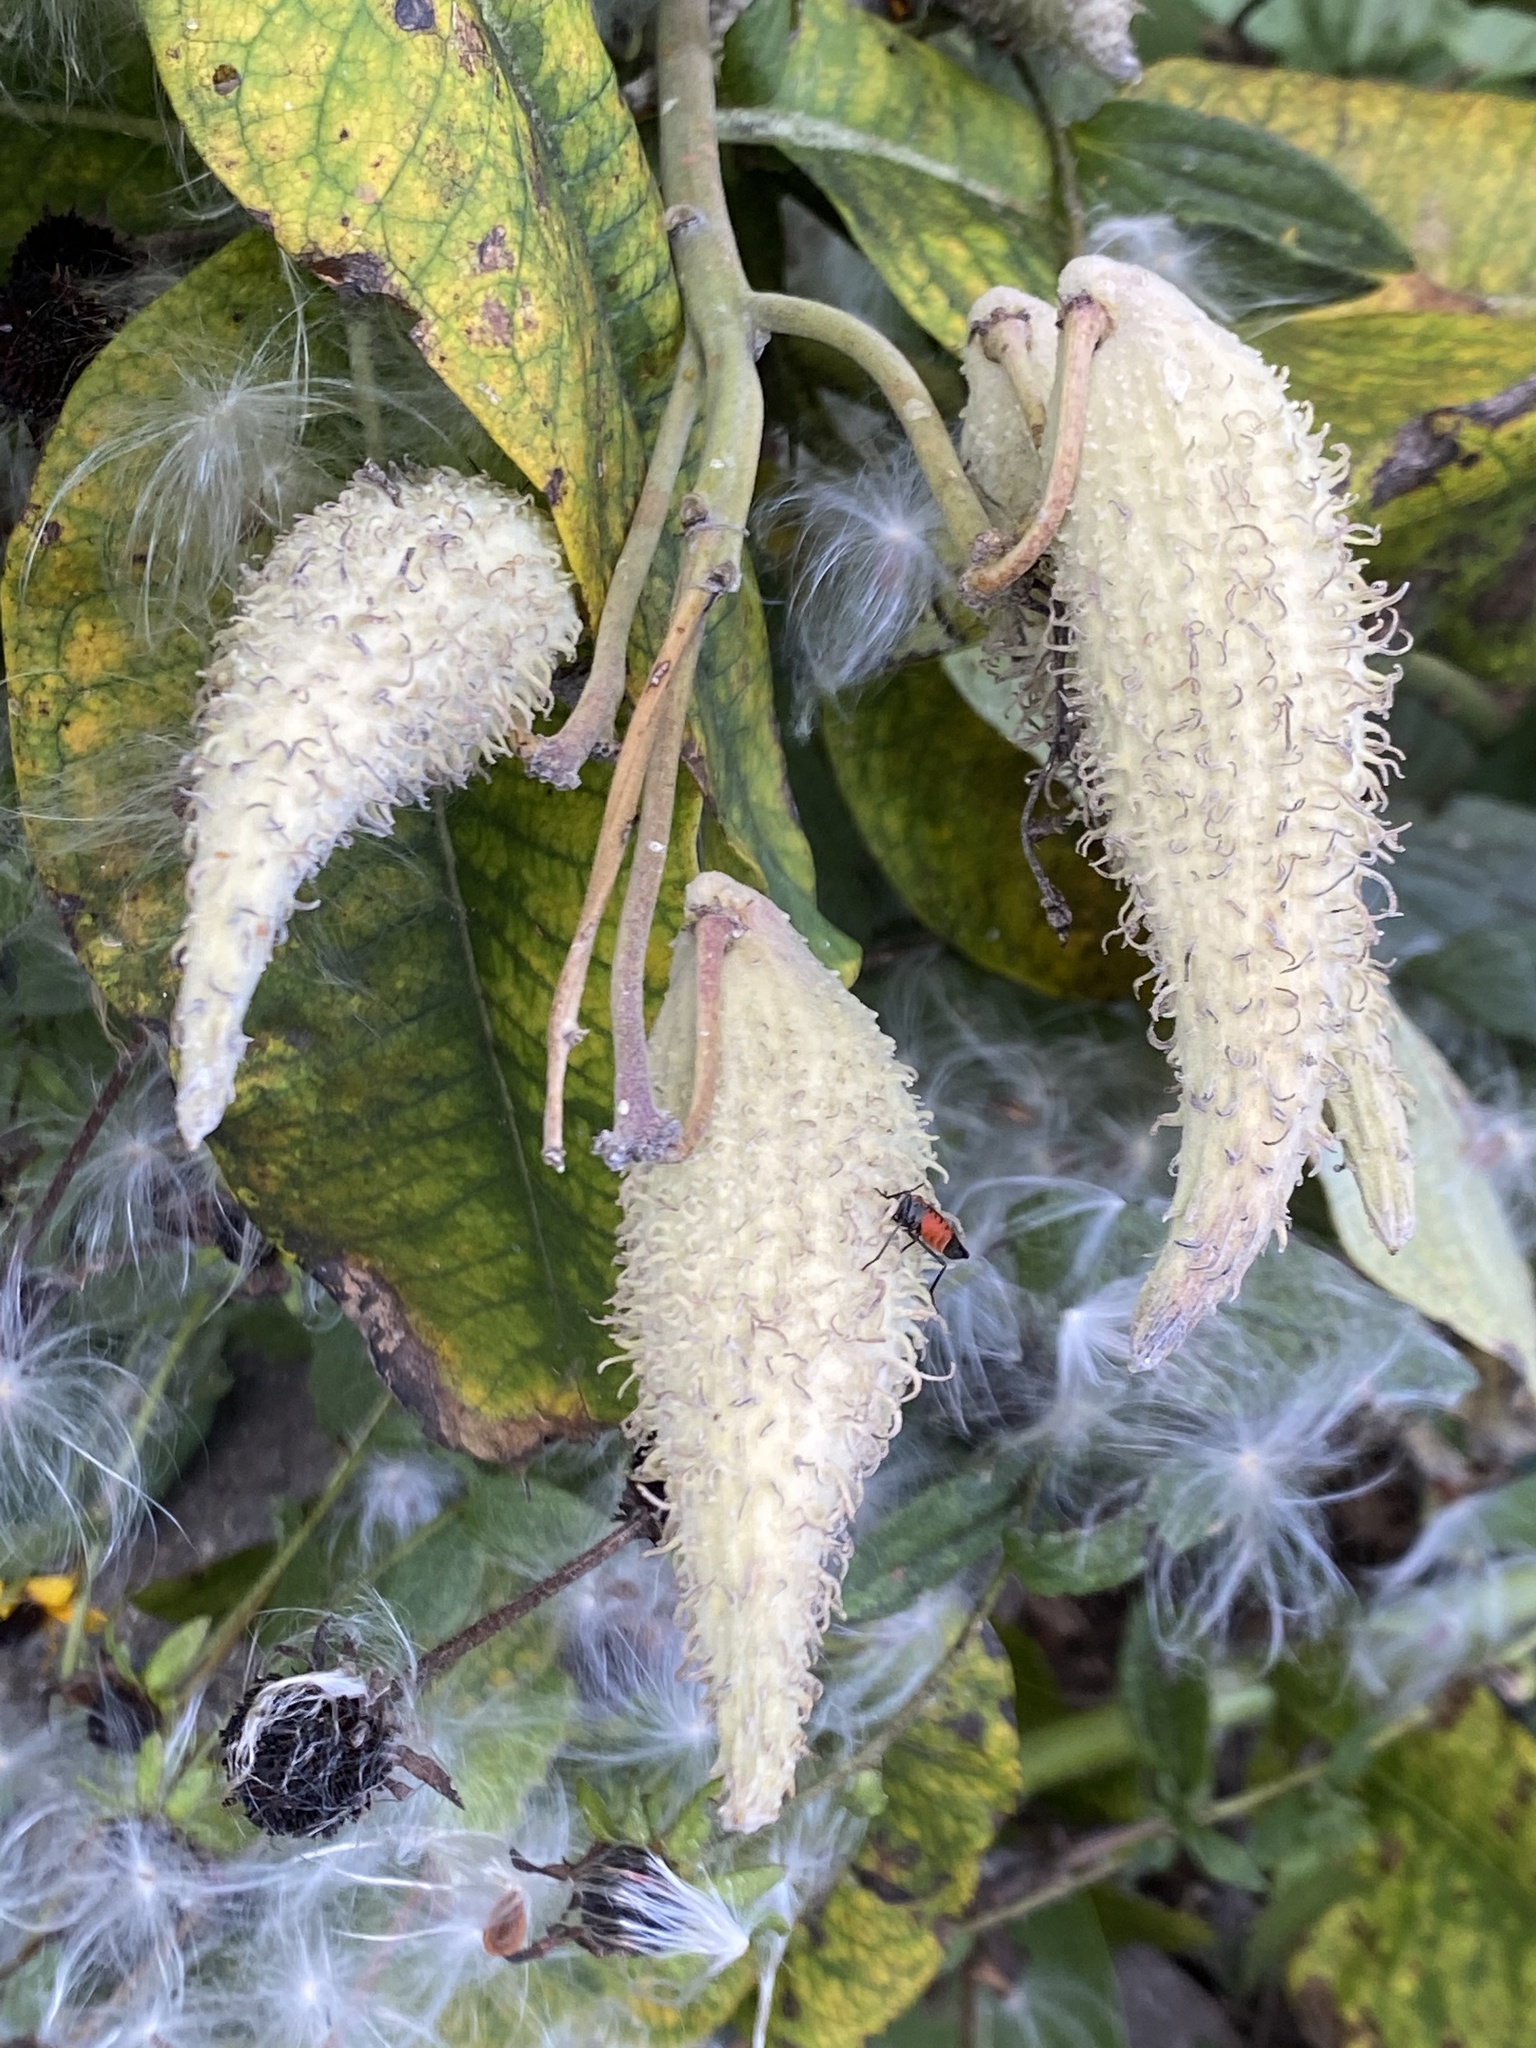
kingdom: Plantae
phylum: Tracheophyta
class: Magnoliopsida
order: Gentianales
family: Apocynaceae
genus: Asclepias
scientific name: Asclepias syriaca
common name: Common milkweed
